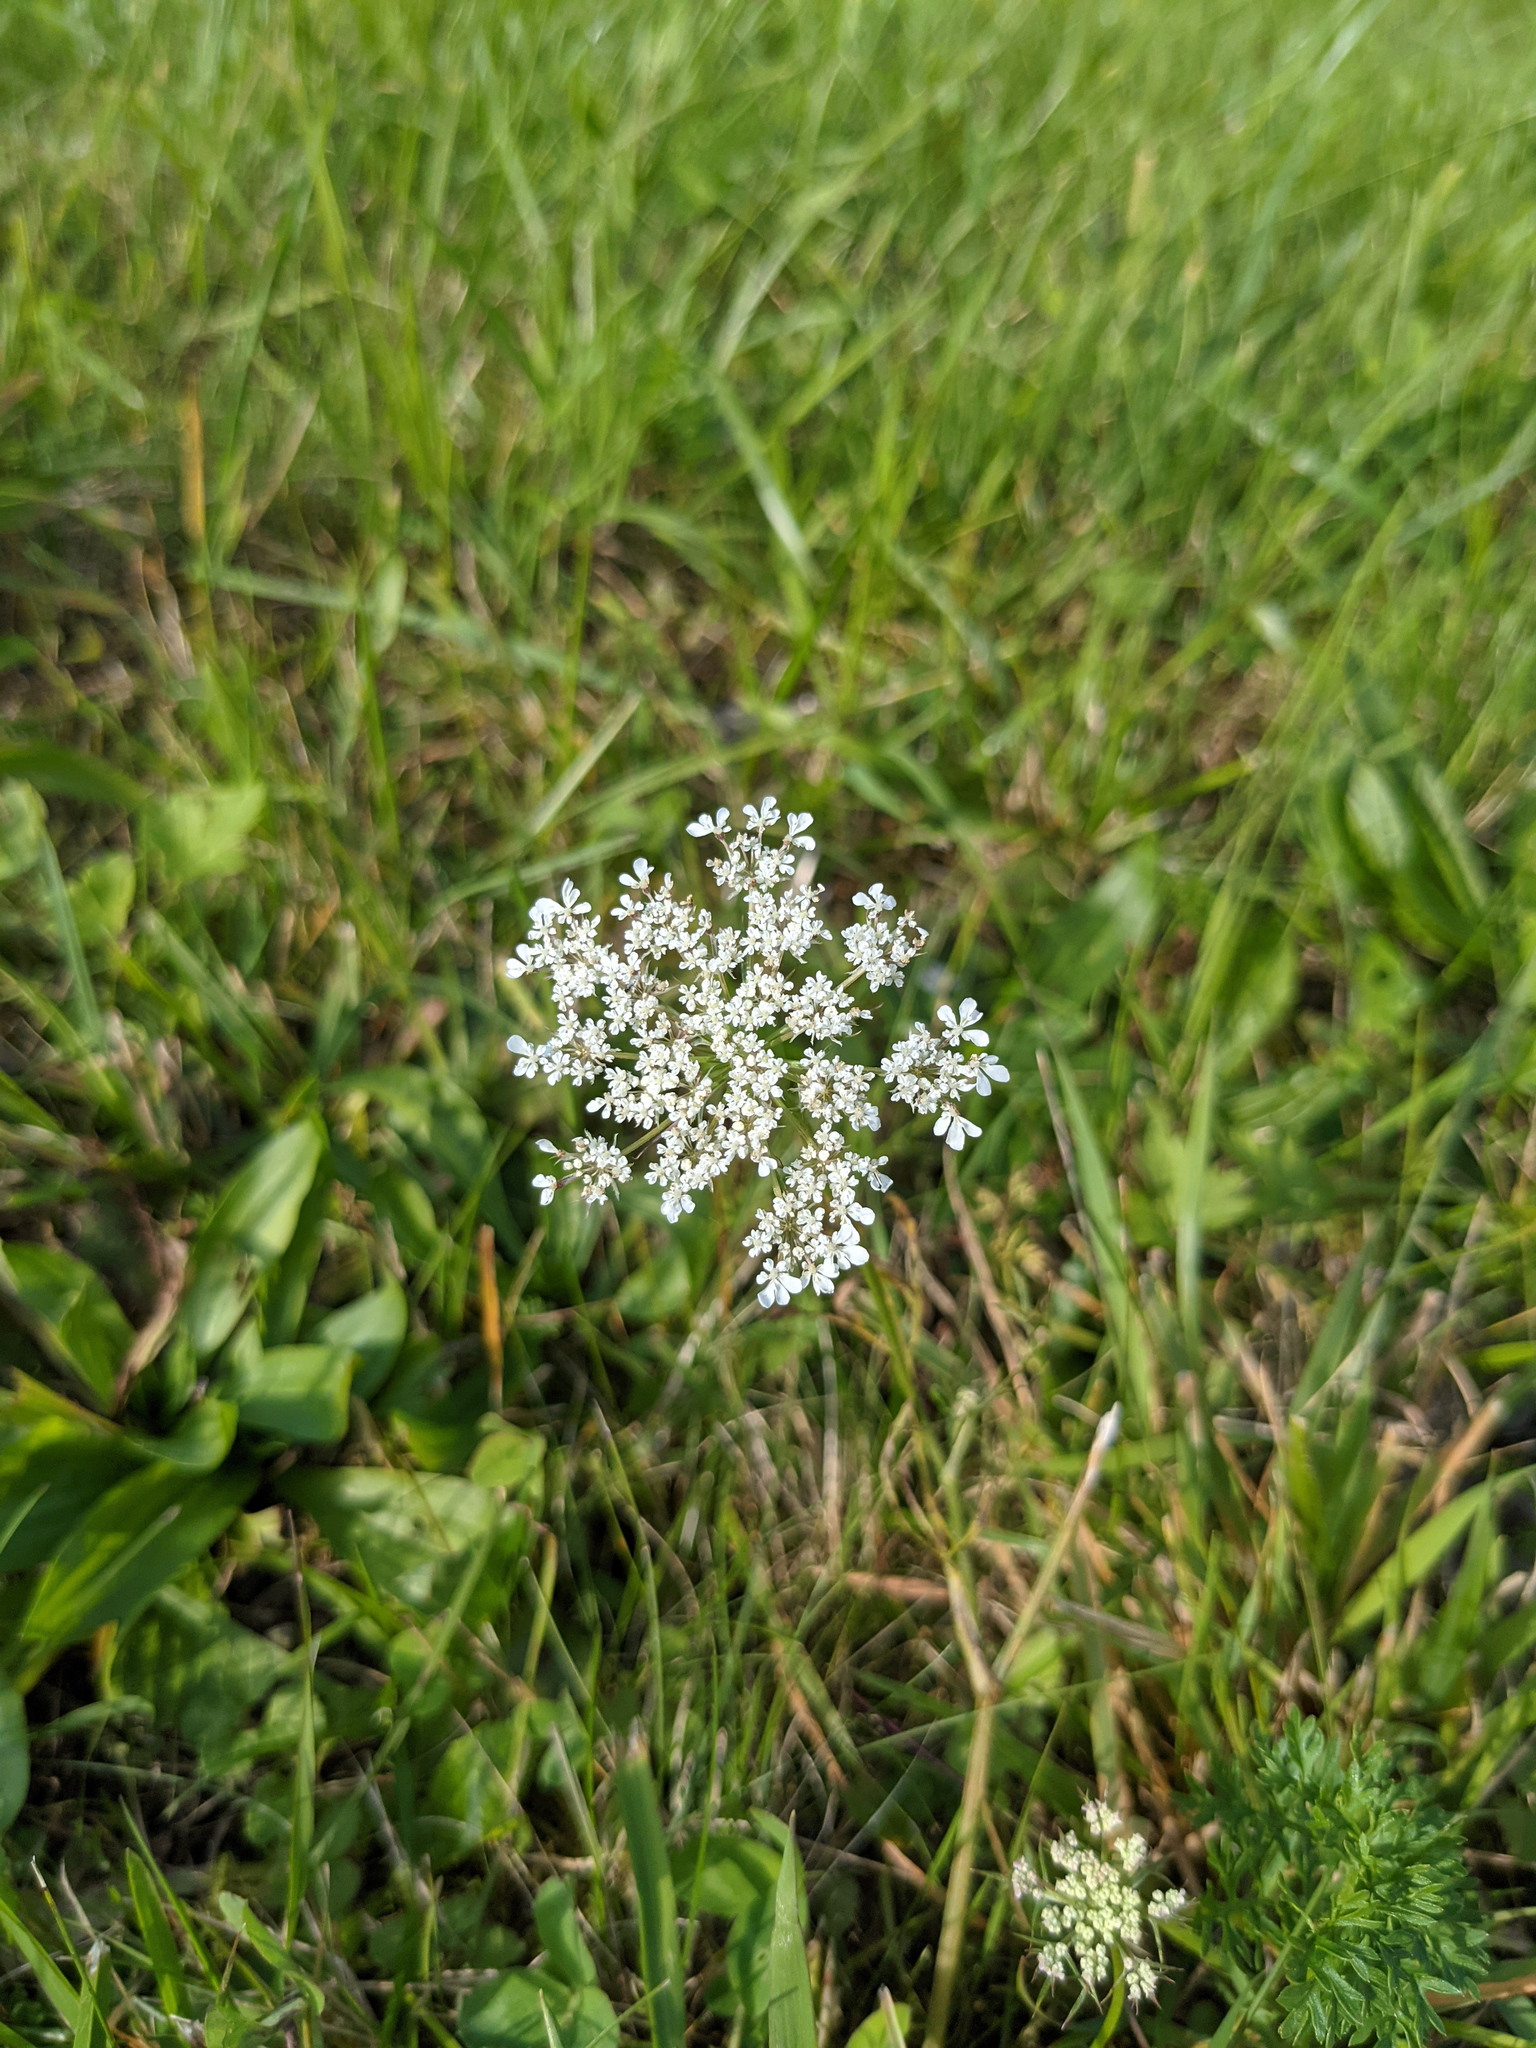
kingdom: Plantae
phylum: Tracheophyta
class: Magnoliopsida
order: Apiales
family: Apiaceae
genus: Daucus
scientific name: Daucus carota
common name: Wild carrot
